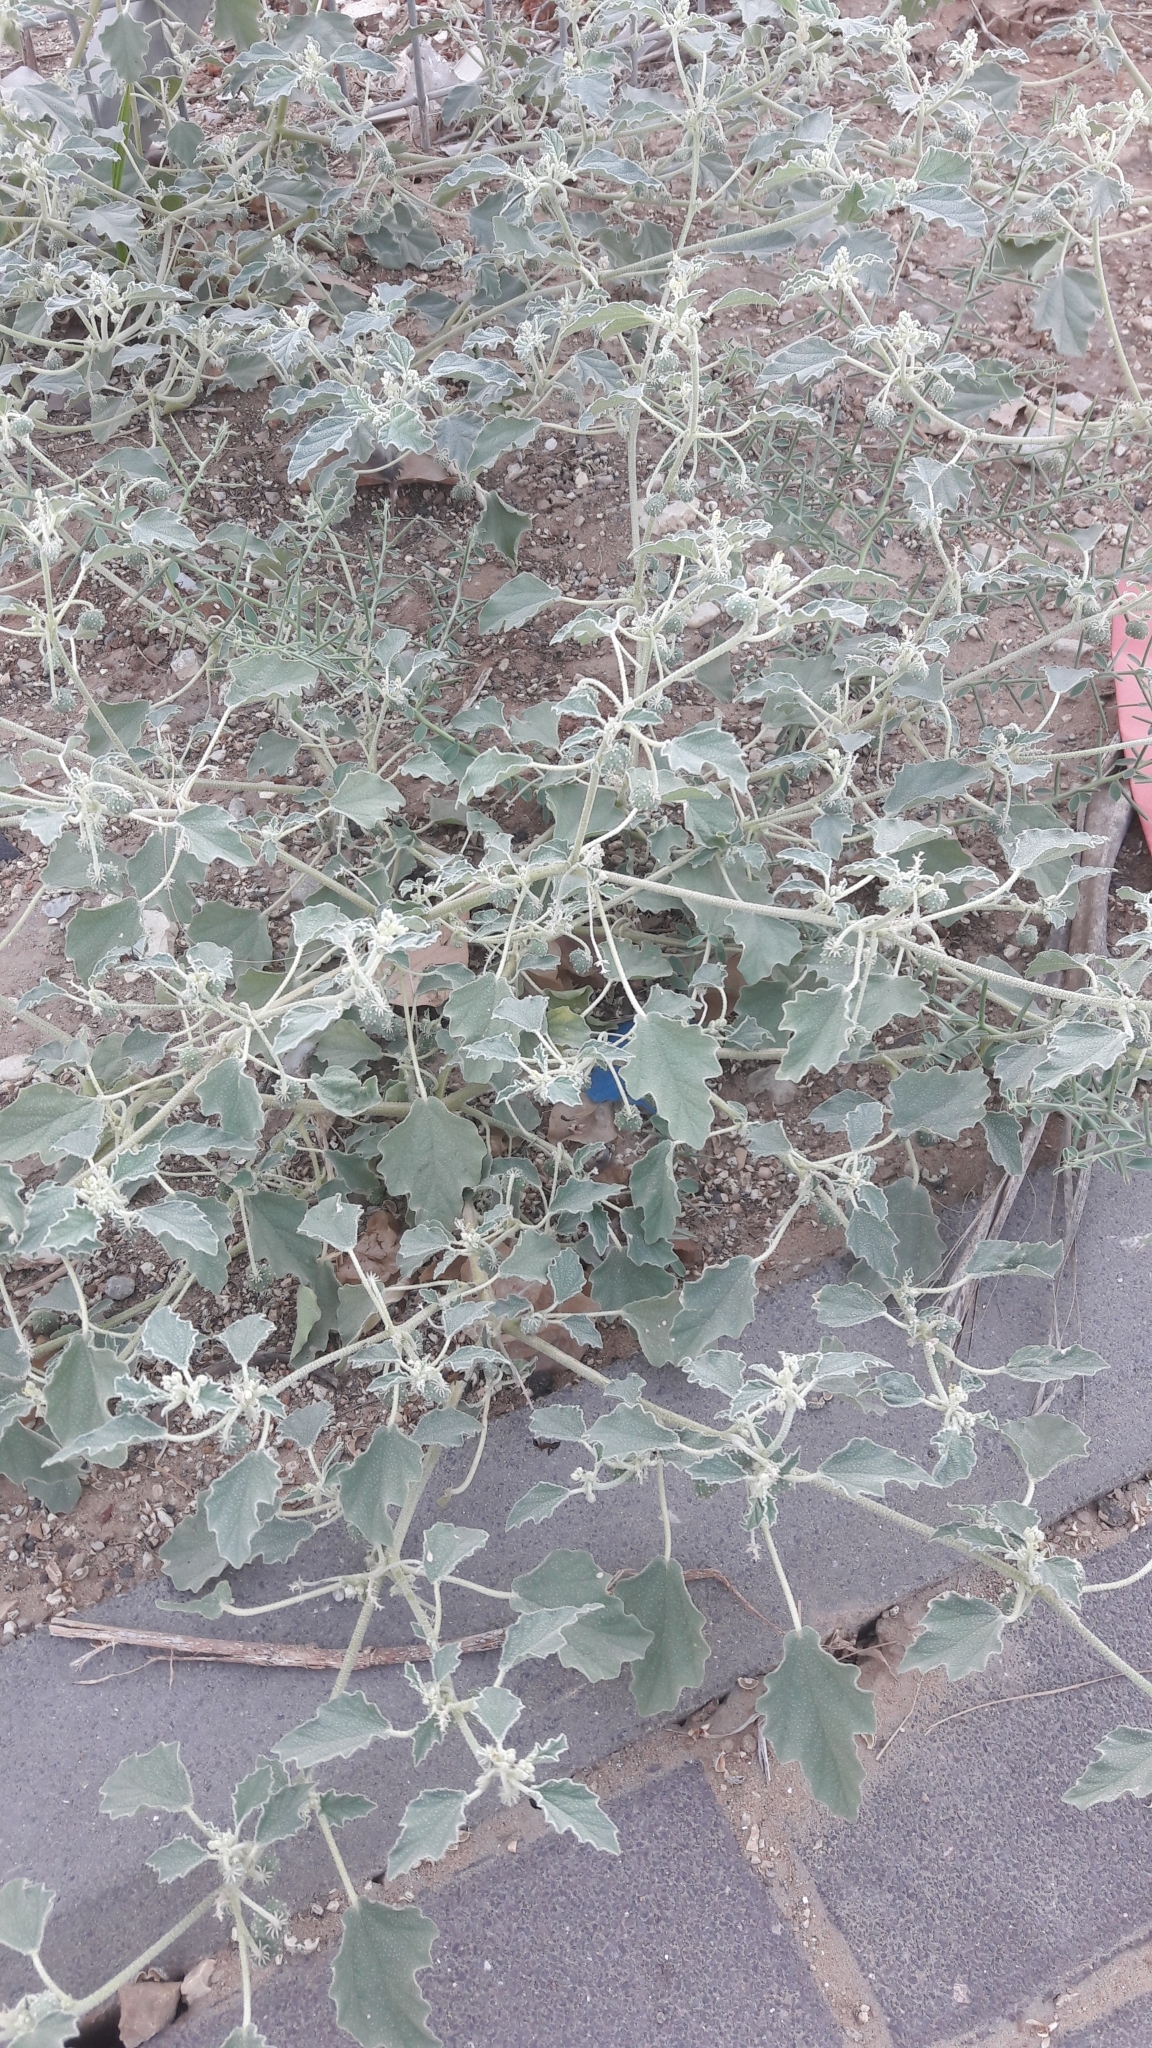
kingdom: Plantae
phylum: Tracheophyta
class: Magnoliopsida
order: Malpighiales
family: Euphorbiaceae
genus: Chrozophora
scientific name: Chrozophora tinctoria
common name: Dyer's litmus
